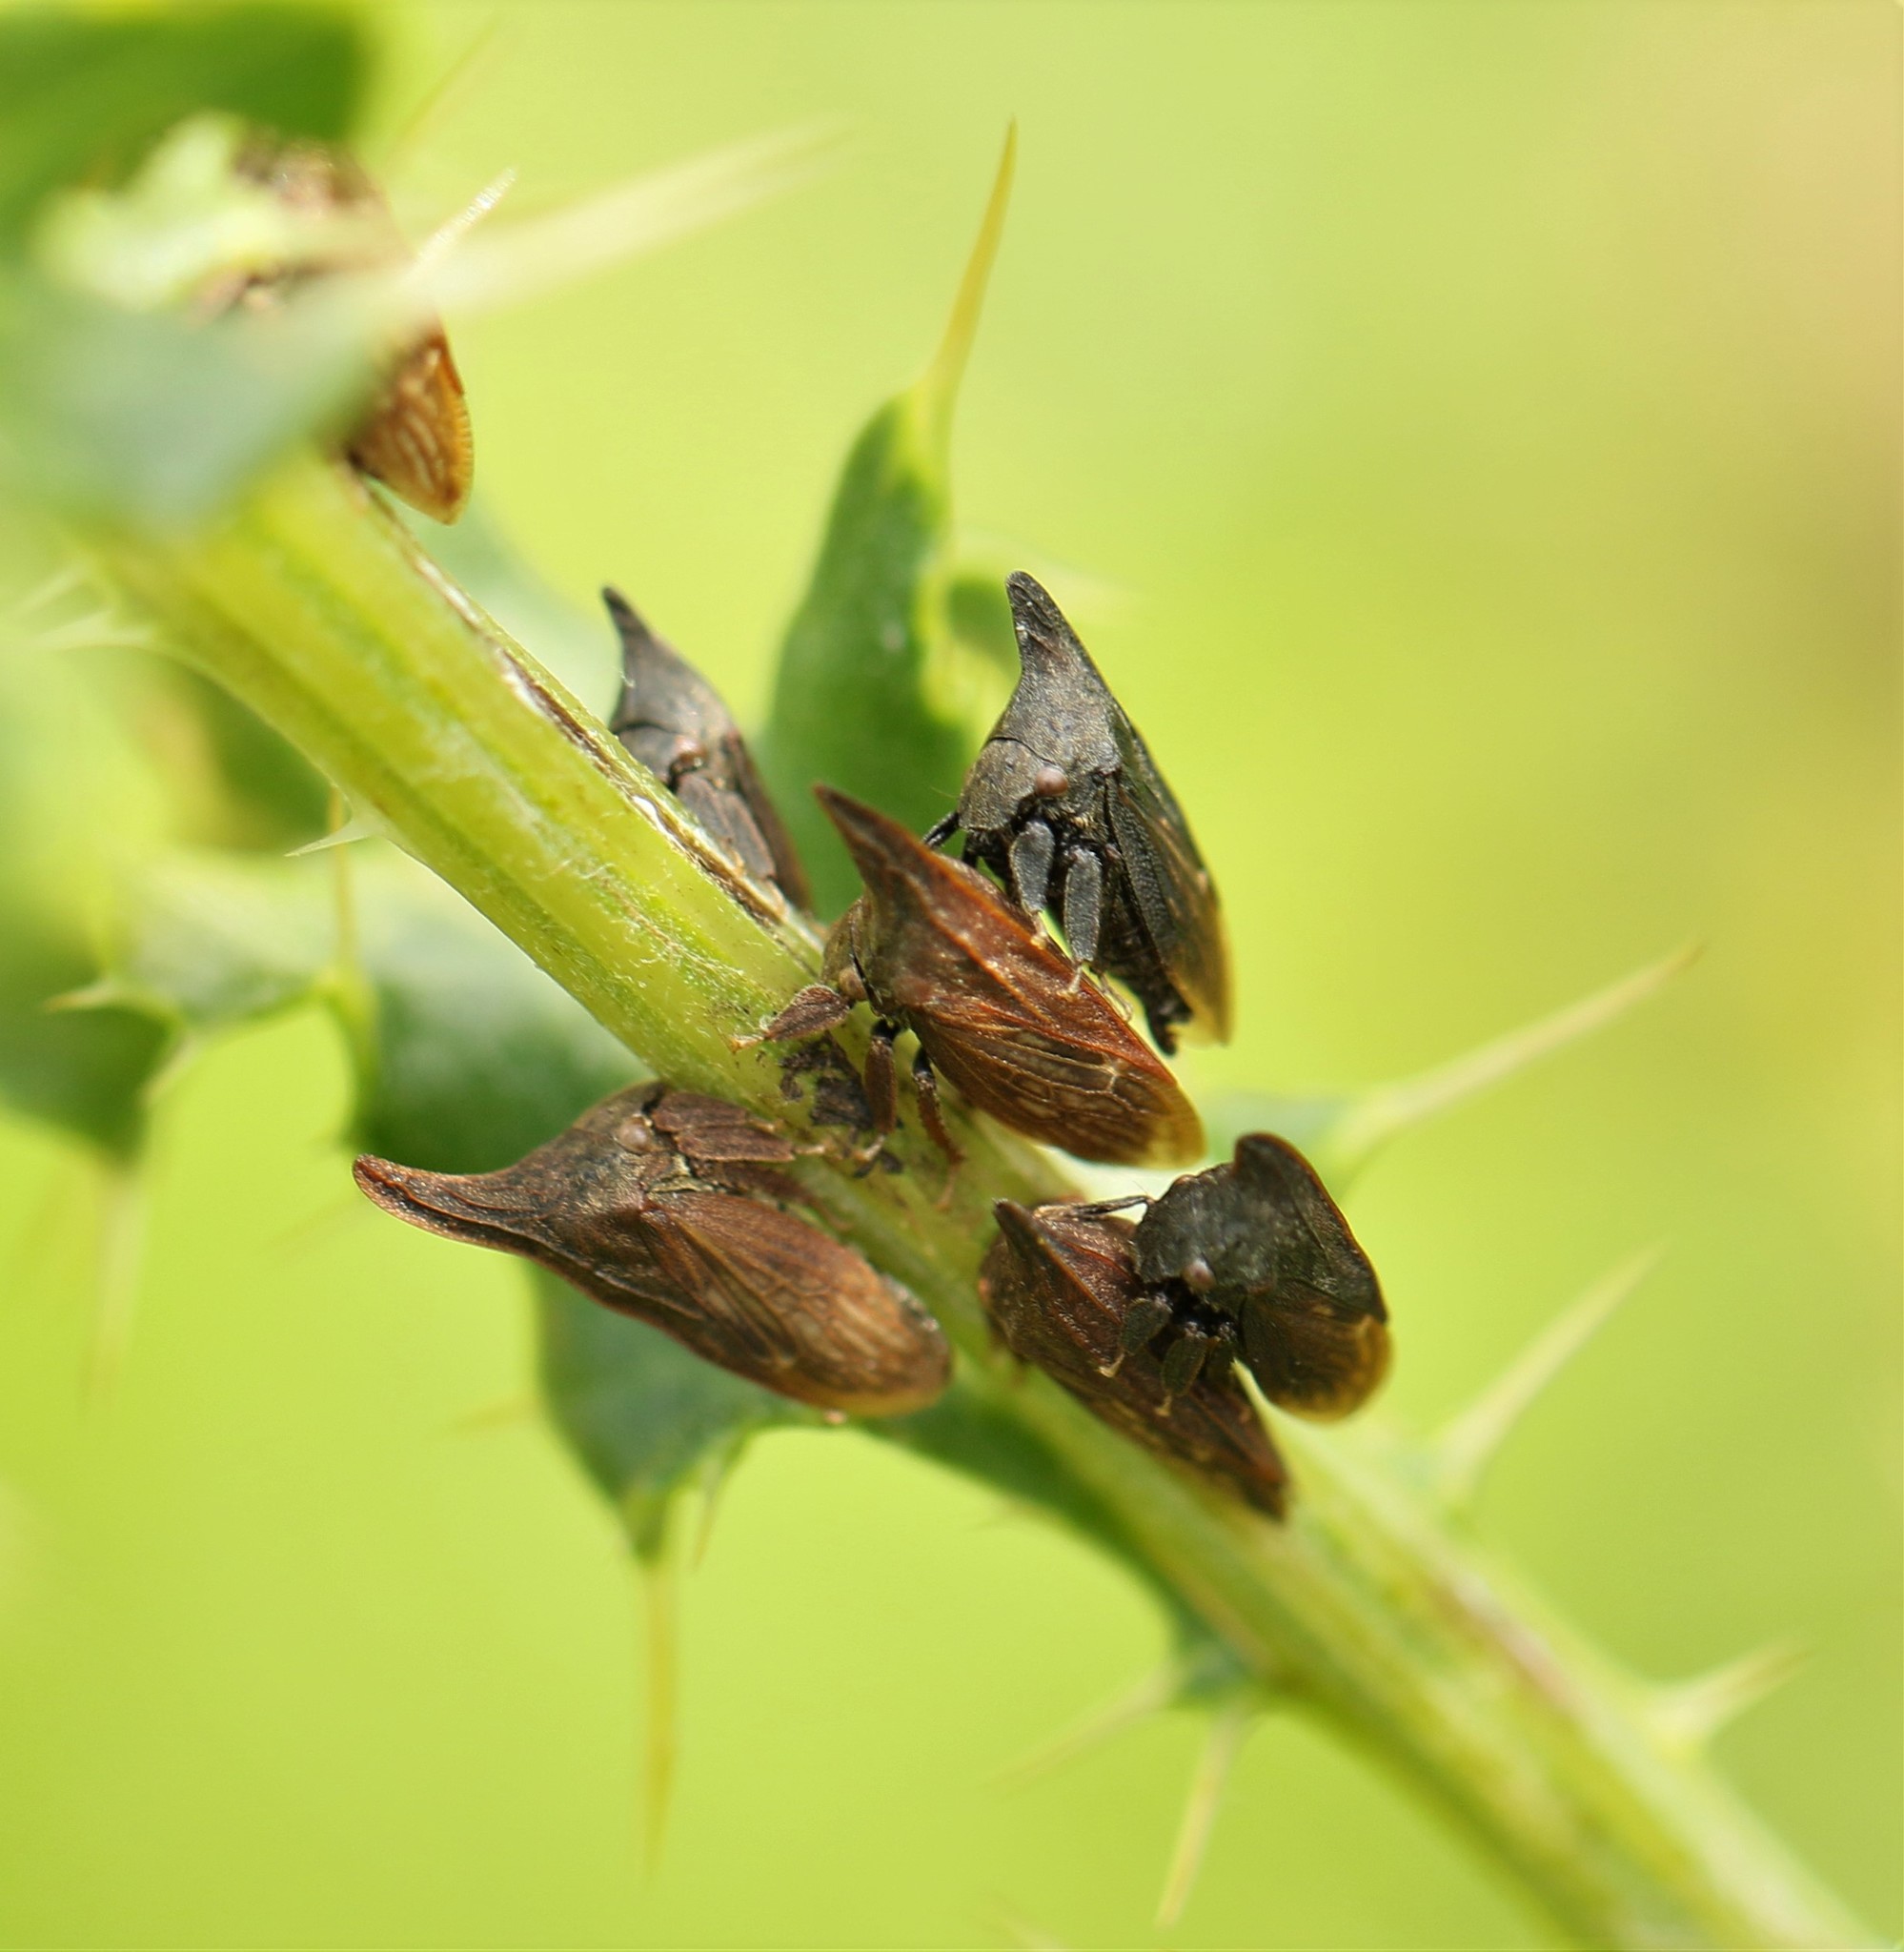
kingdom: Animalia
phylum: Arthropoda
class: Insecta
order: Hemiptera
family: Membracidae
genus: Enchenopa
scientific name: Enchenopa latipes
